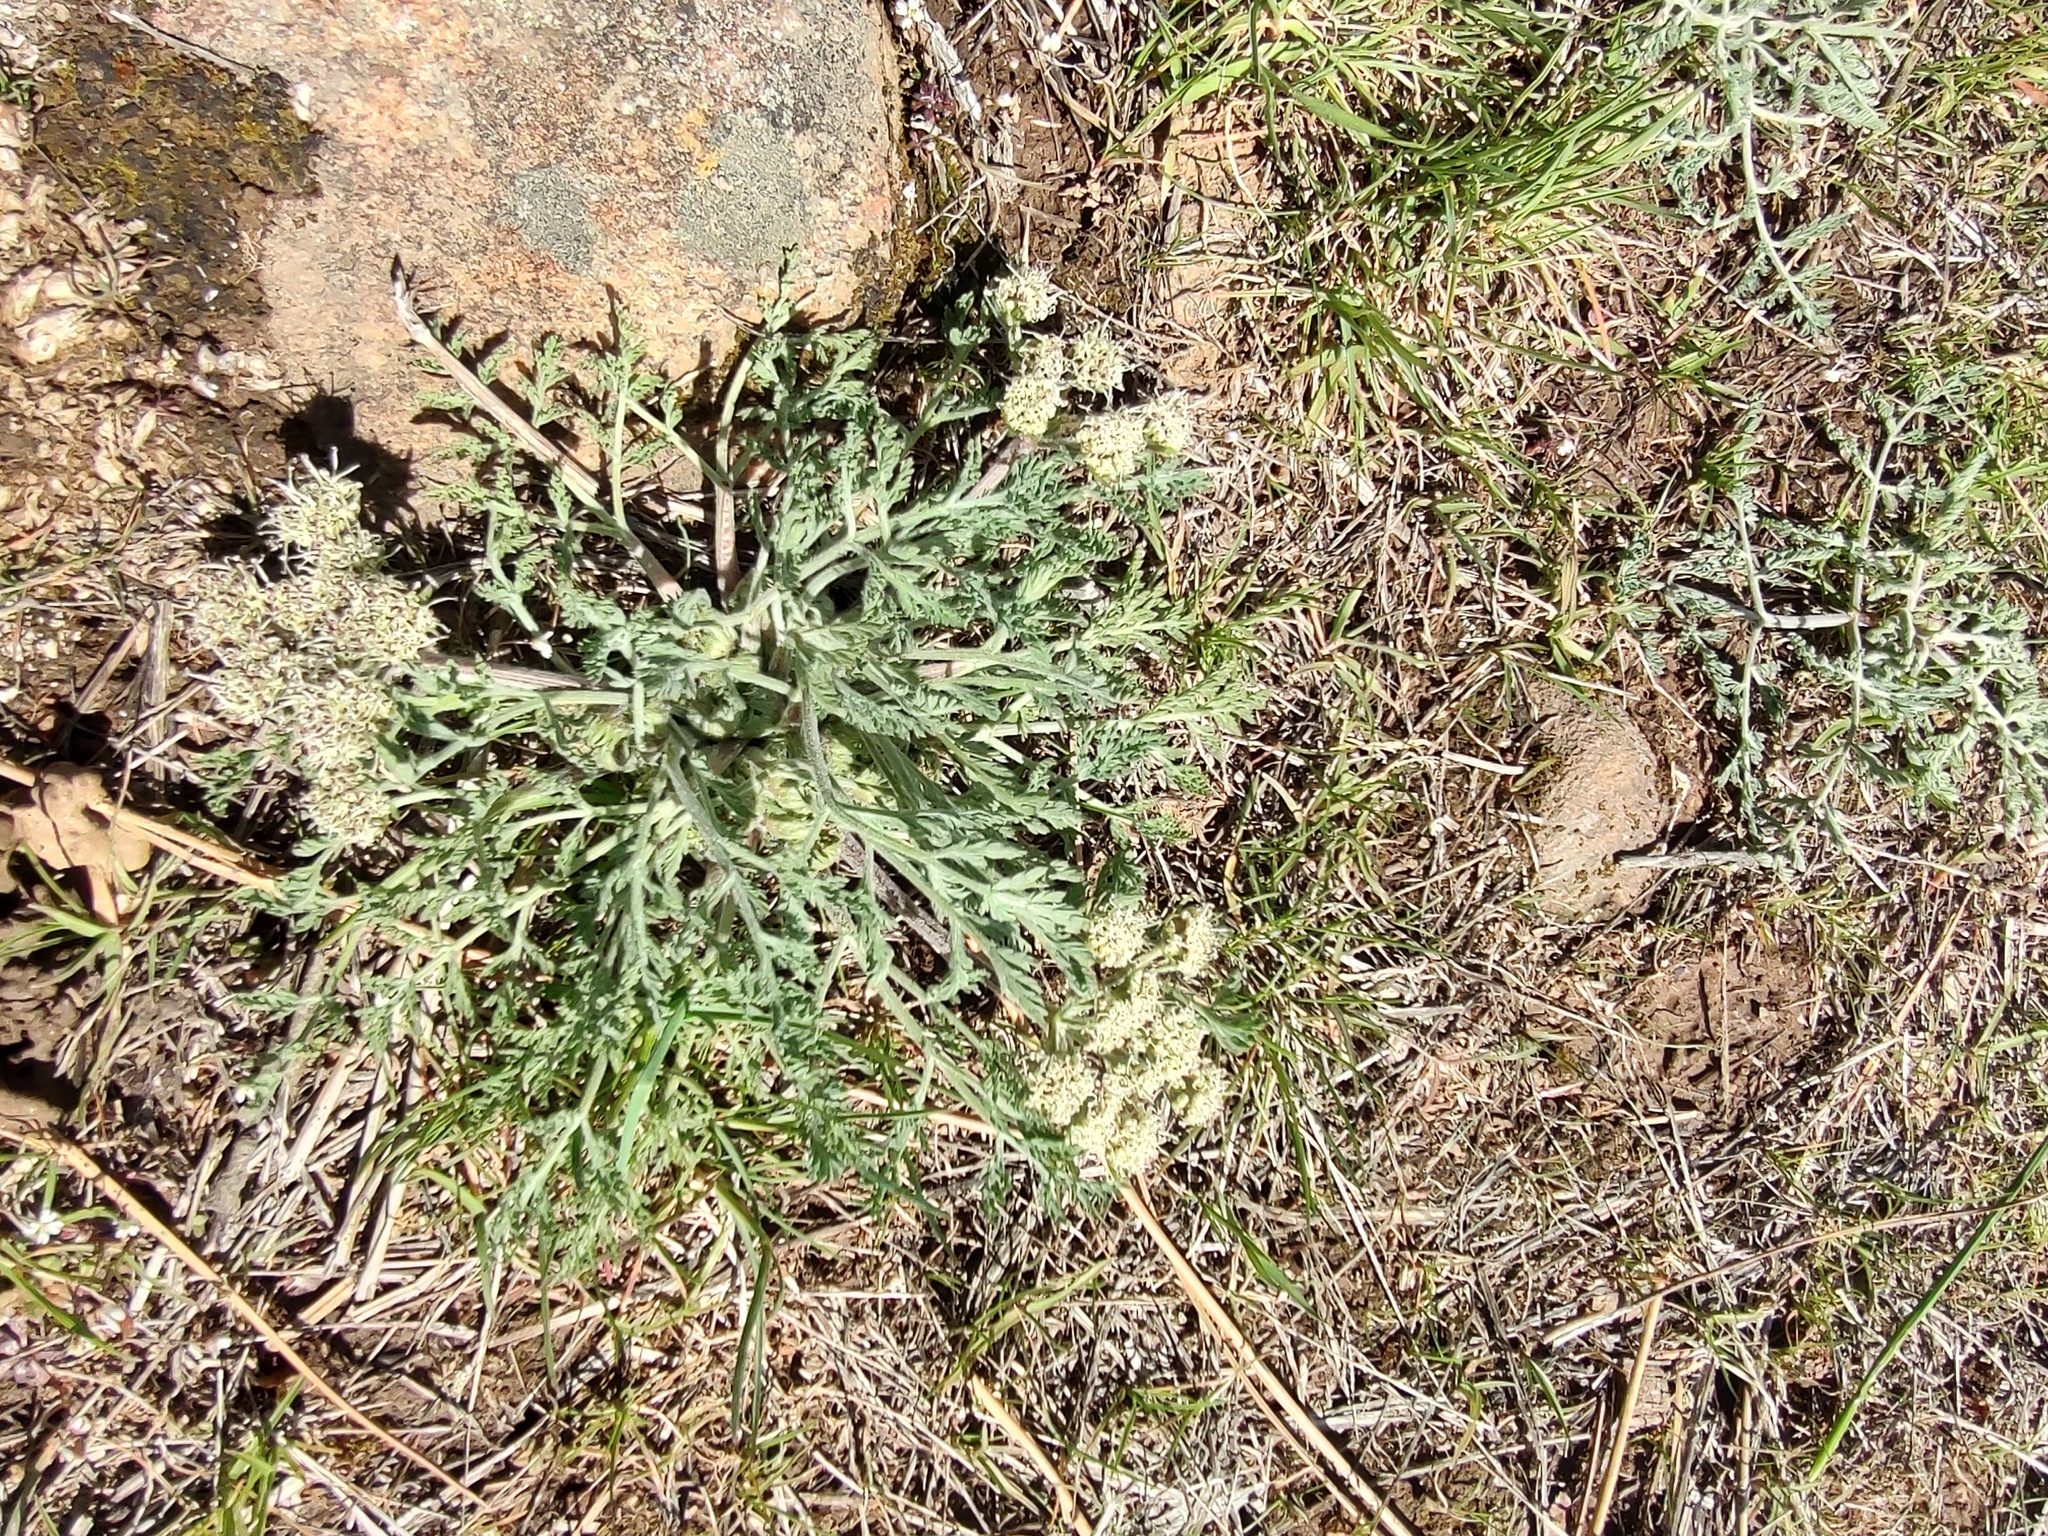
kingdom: Plantae
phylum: Tracheophyta
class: Magnoliopsida
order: Apiales
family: Apiaceae
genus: Lomatium
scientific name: Lomatium macrocarpum
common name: Big-seed biscuitroot
